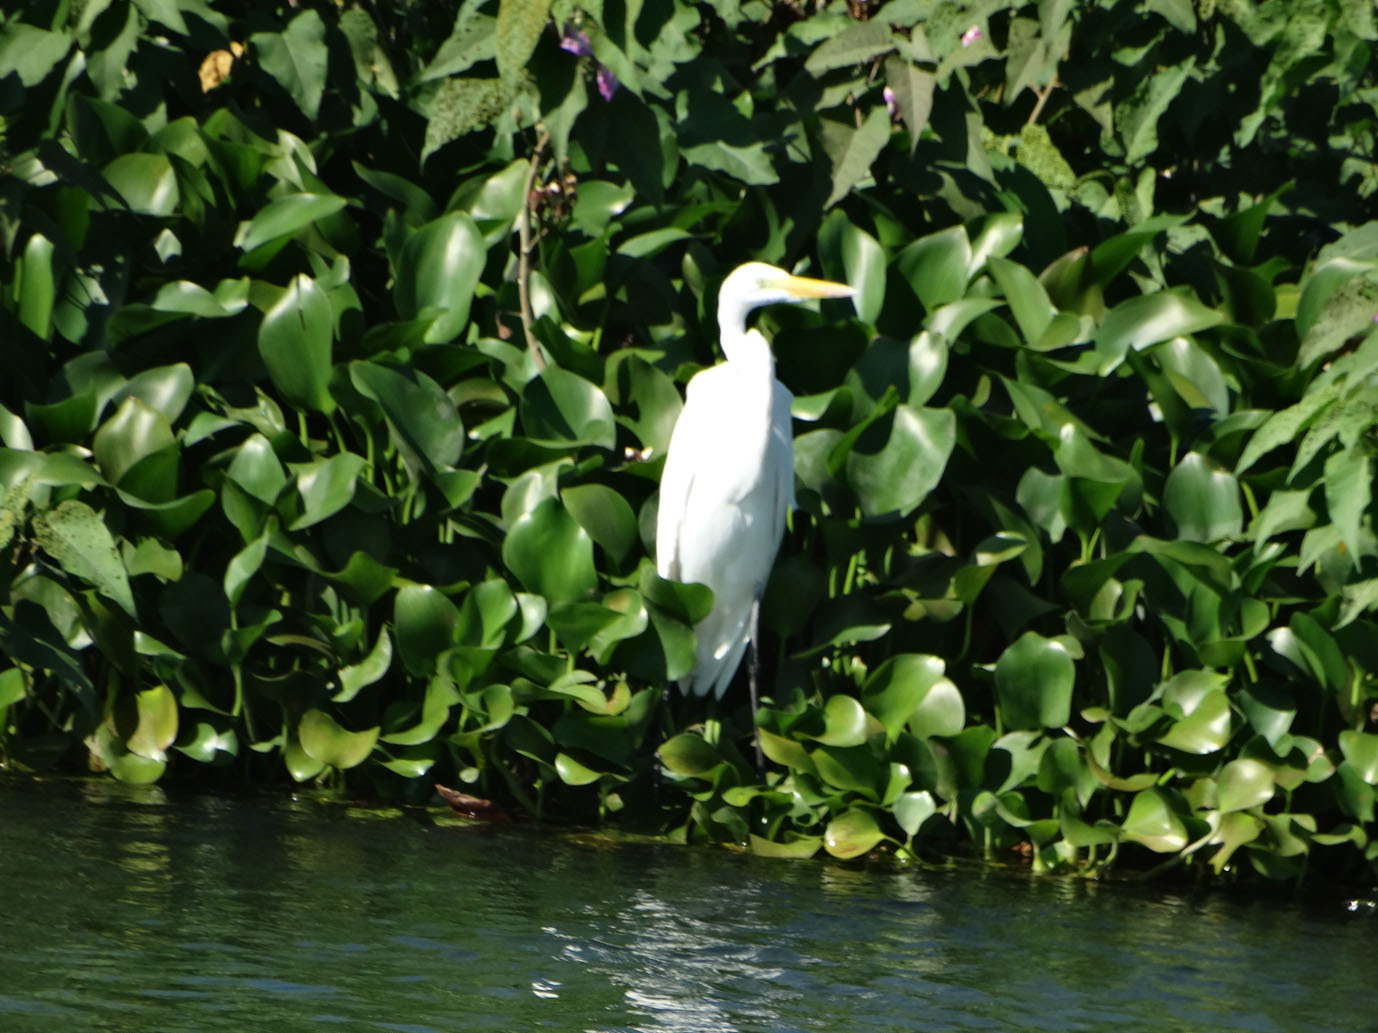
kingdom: Animalia
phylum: Chordata
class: Aves
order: Pelecaniformes
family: Ardeidae
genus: Ardea
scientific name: Ardea alba
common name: Great egret
